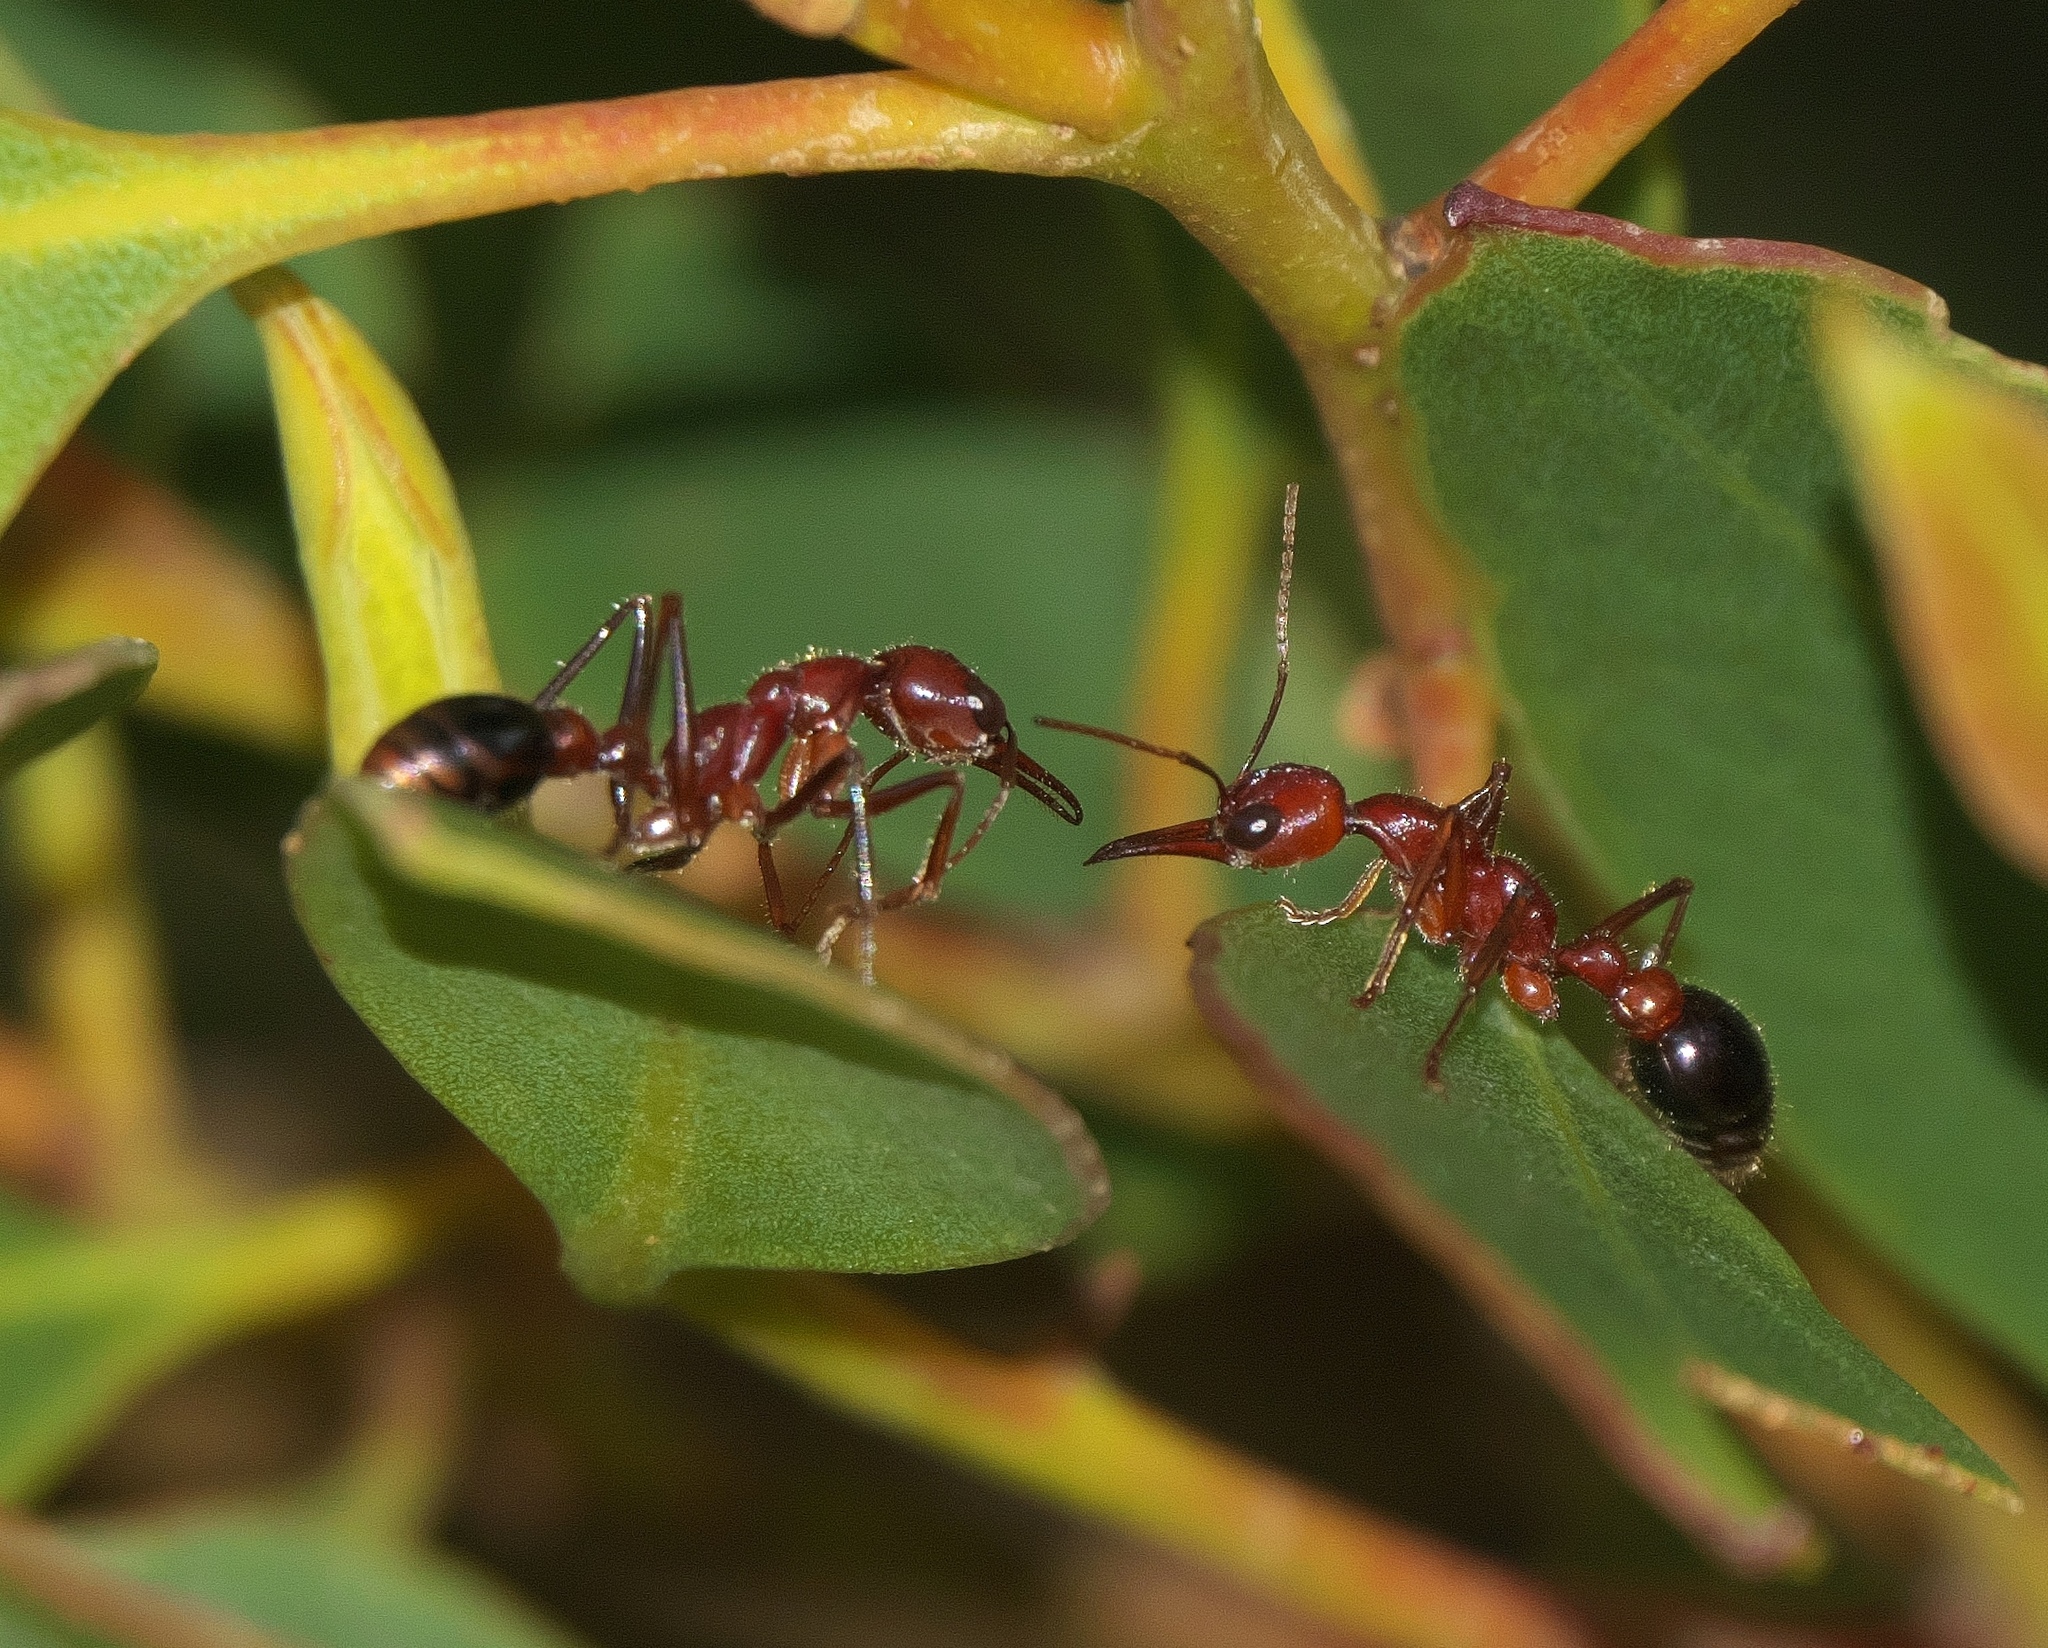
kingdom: Animalia
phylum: Arthropoda
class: Insecta
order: Hymenoptera
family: Formicidae
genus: Myrmecia
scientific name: Myrmecia regularis
